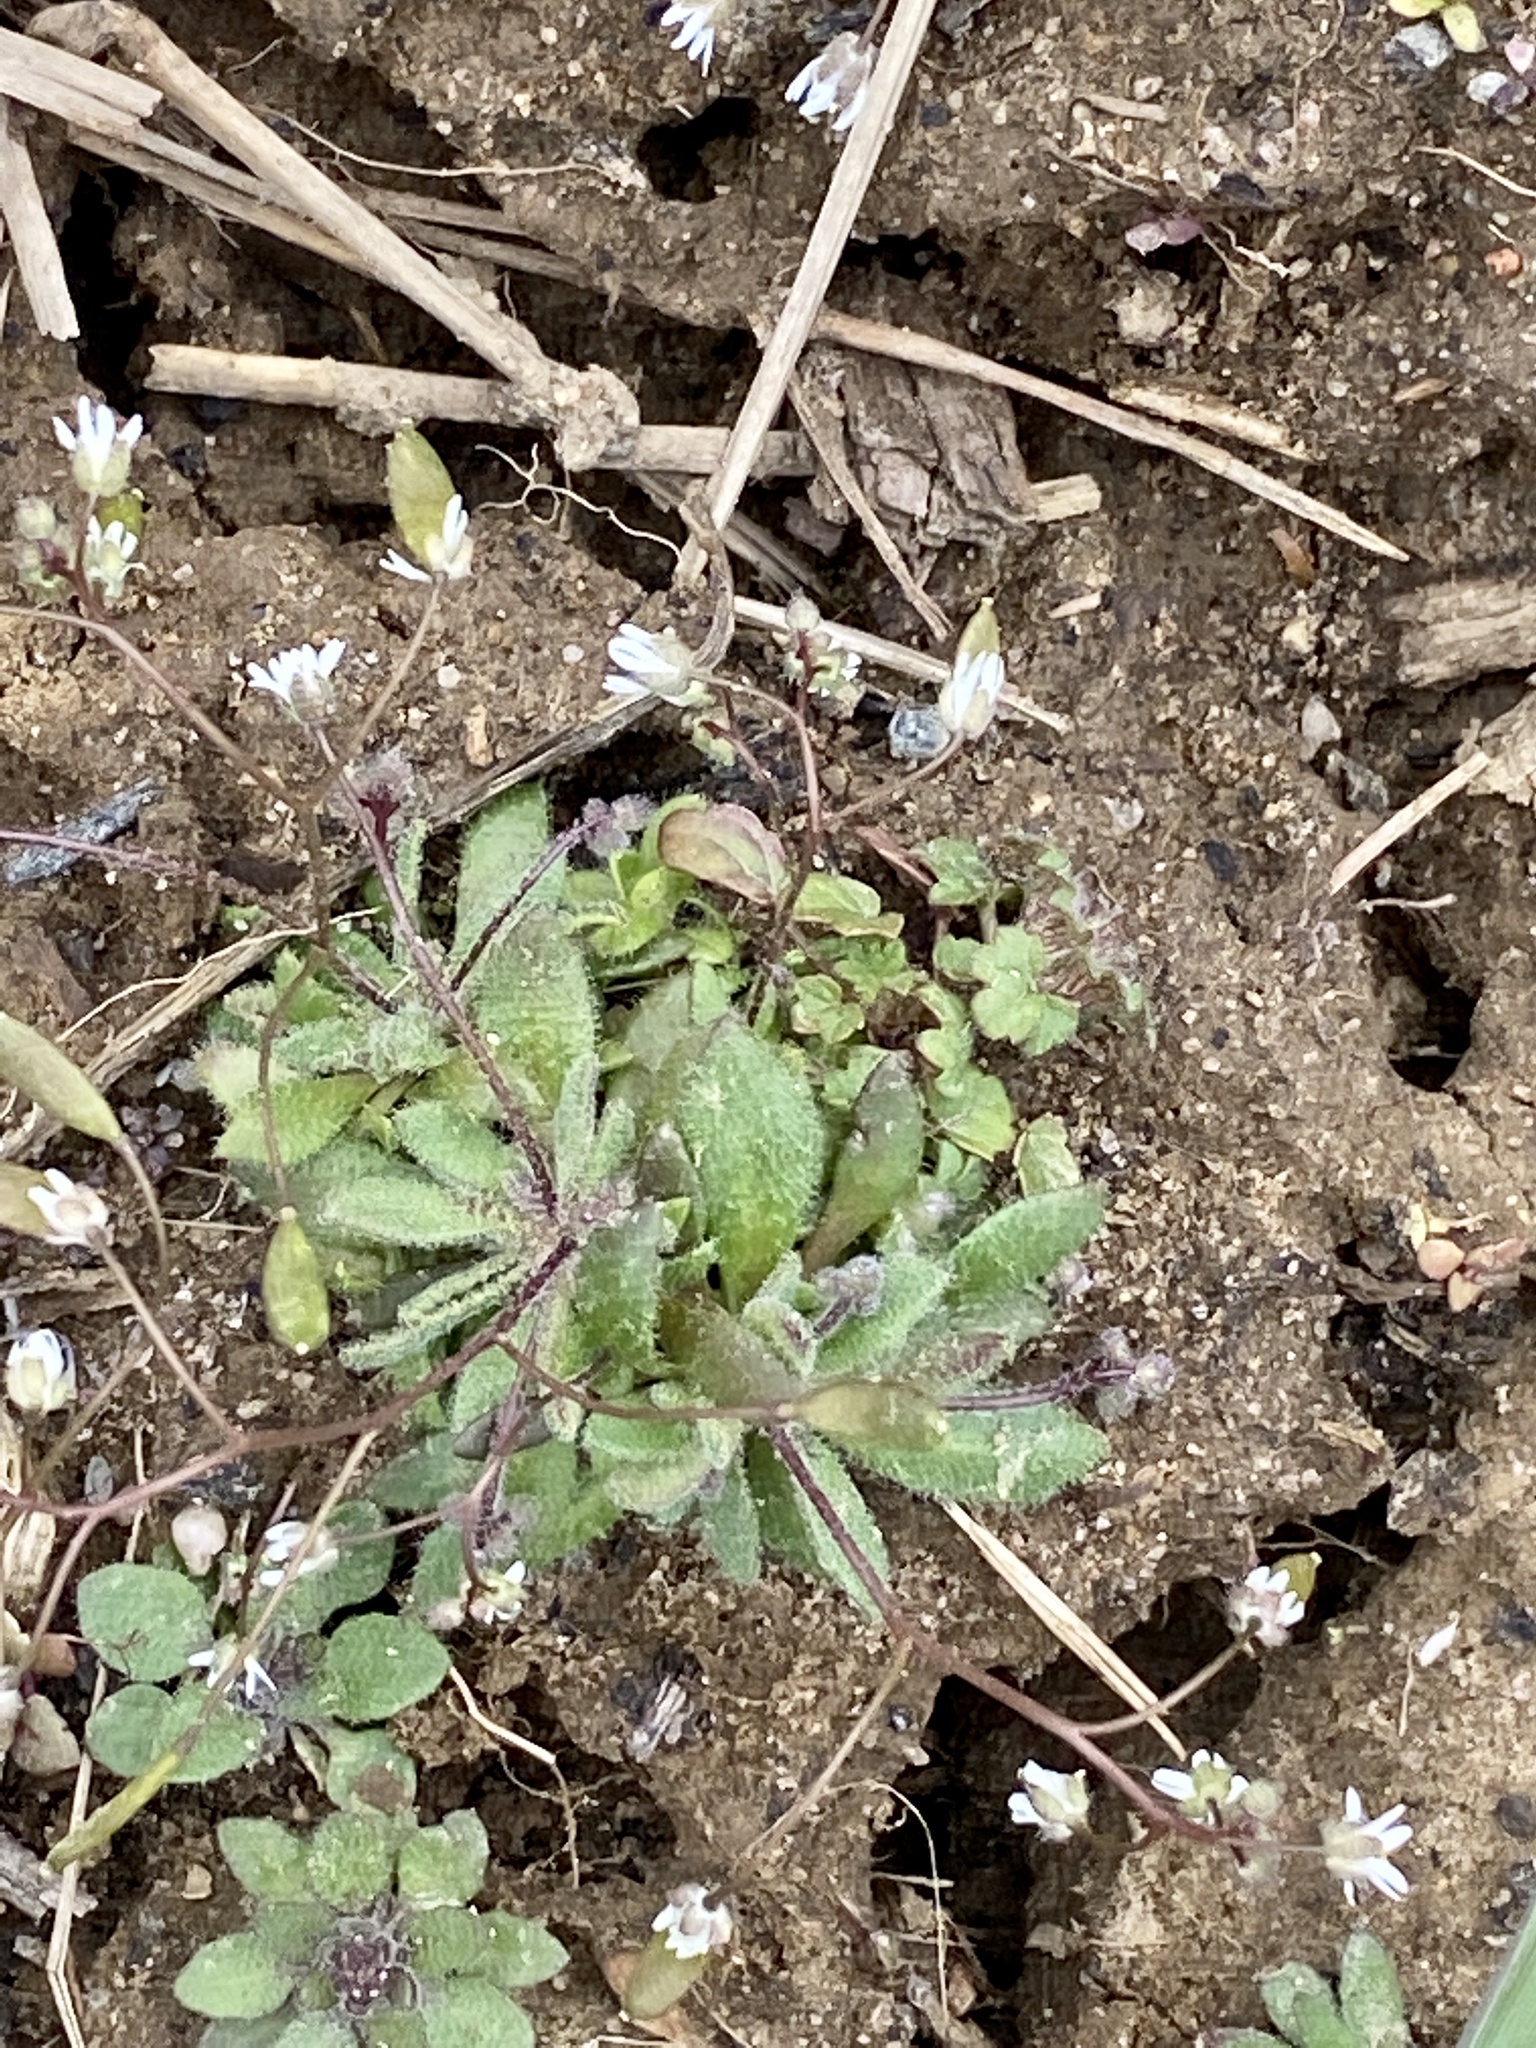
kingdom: Plantae
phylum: Tracheophyta
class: Magnoliopsida
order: Brassicales
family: Brassicaceae
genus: Draba
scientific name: Draba verna
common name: Spring draba
